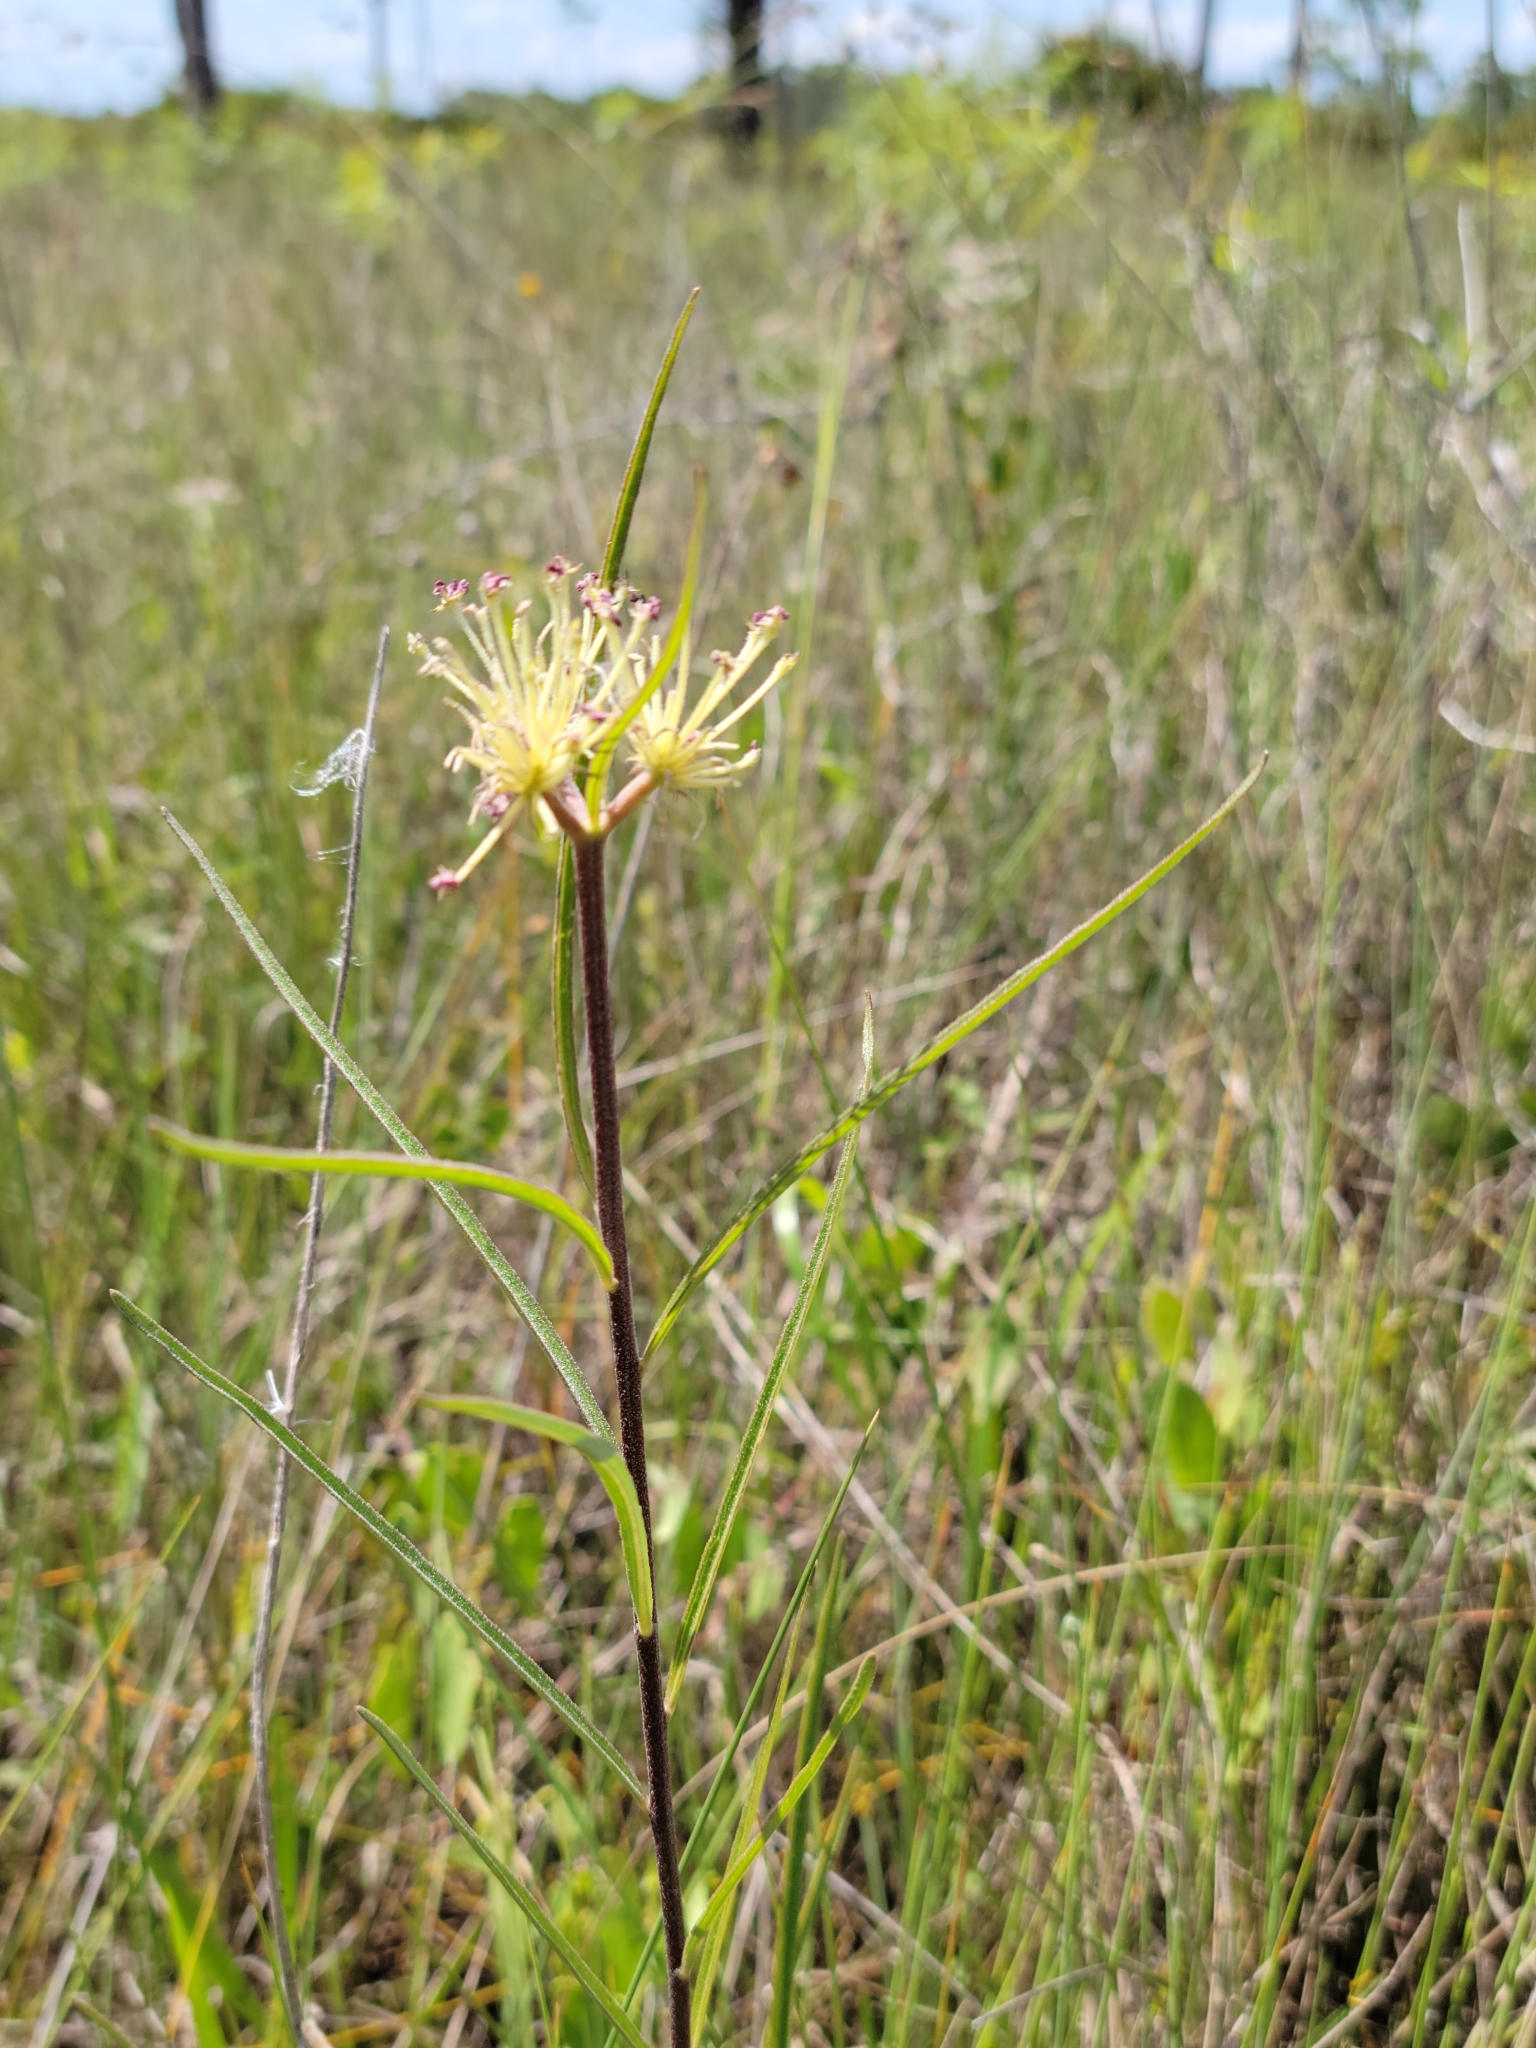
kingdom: Plantae
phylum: Tracheophyta
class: Magnoliopsida
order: Gentianales
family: Apocynaceae
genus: Asclepias
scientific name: Asclepias longifolia
